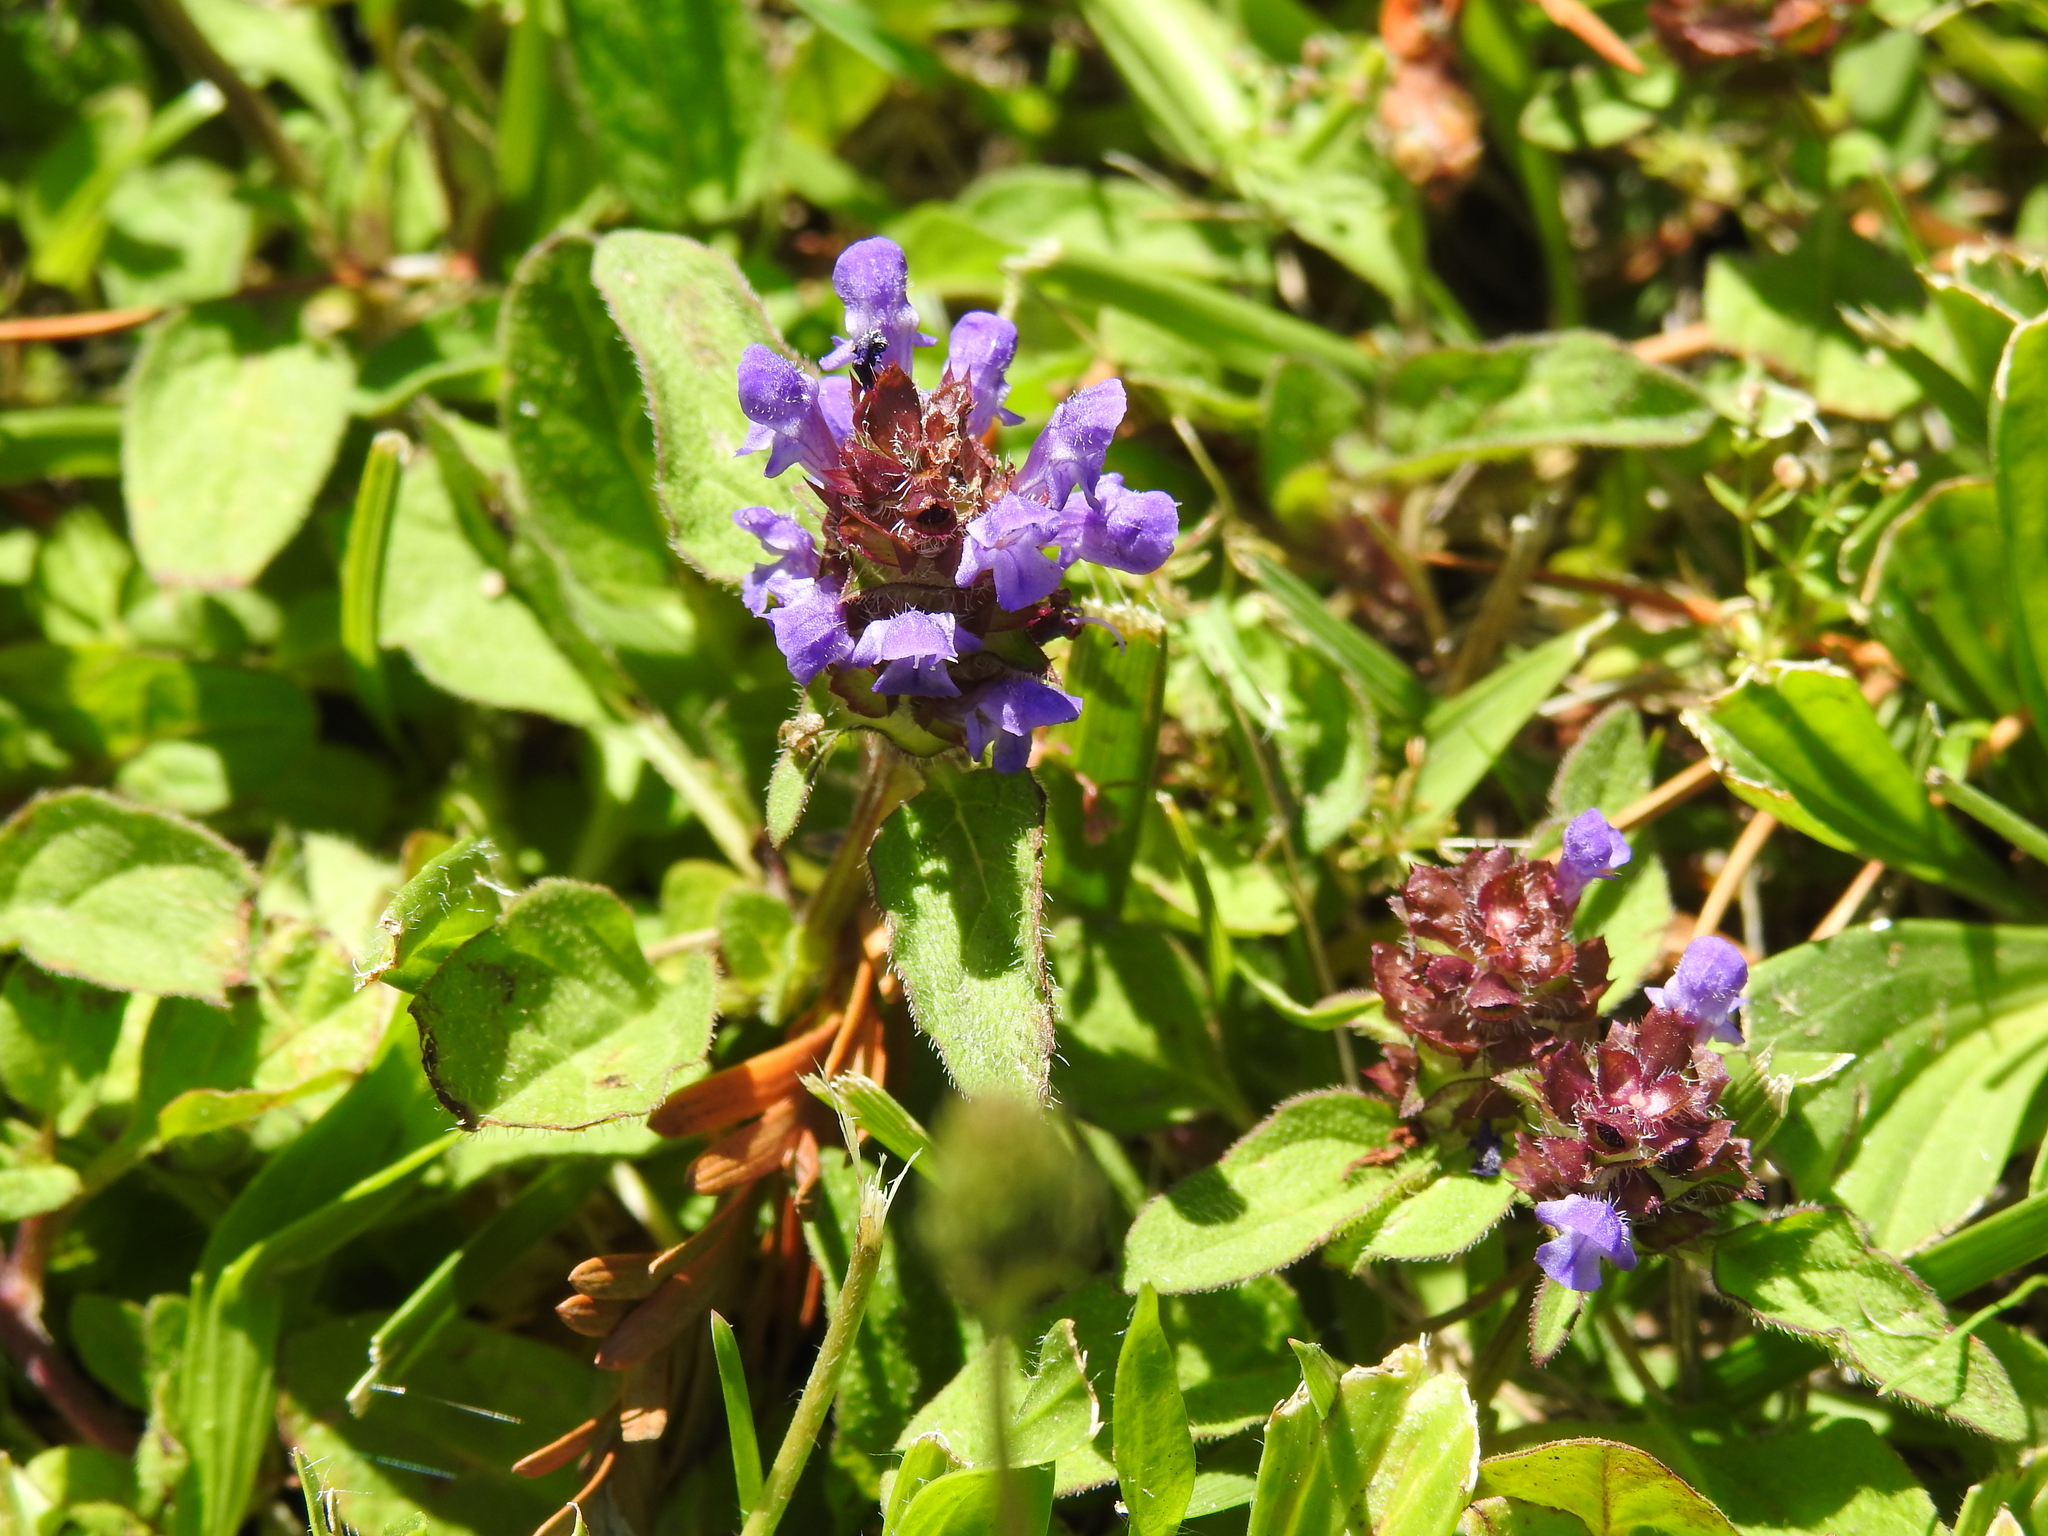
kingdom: Plantae
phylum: Tracheophyta
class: Magnoliopsida
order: Lamiales
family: Lamiaceae
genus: Prunella
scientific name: Prunella vulgaris
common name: Heal-all
